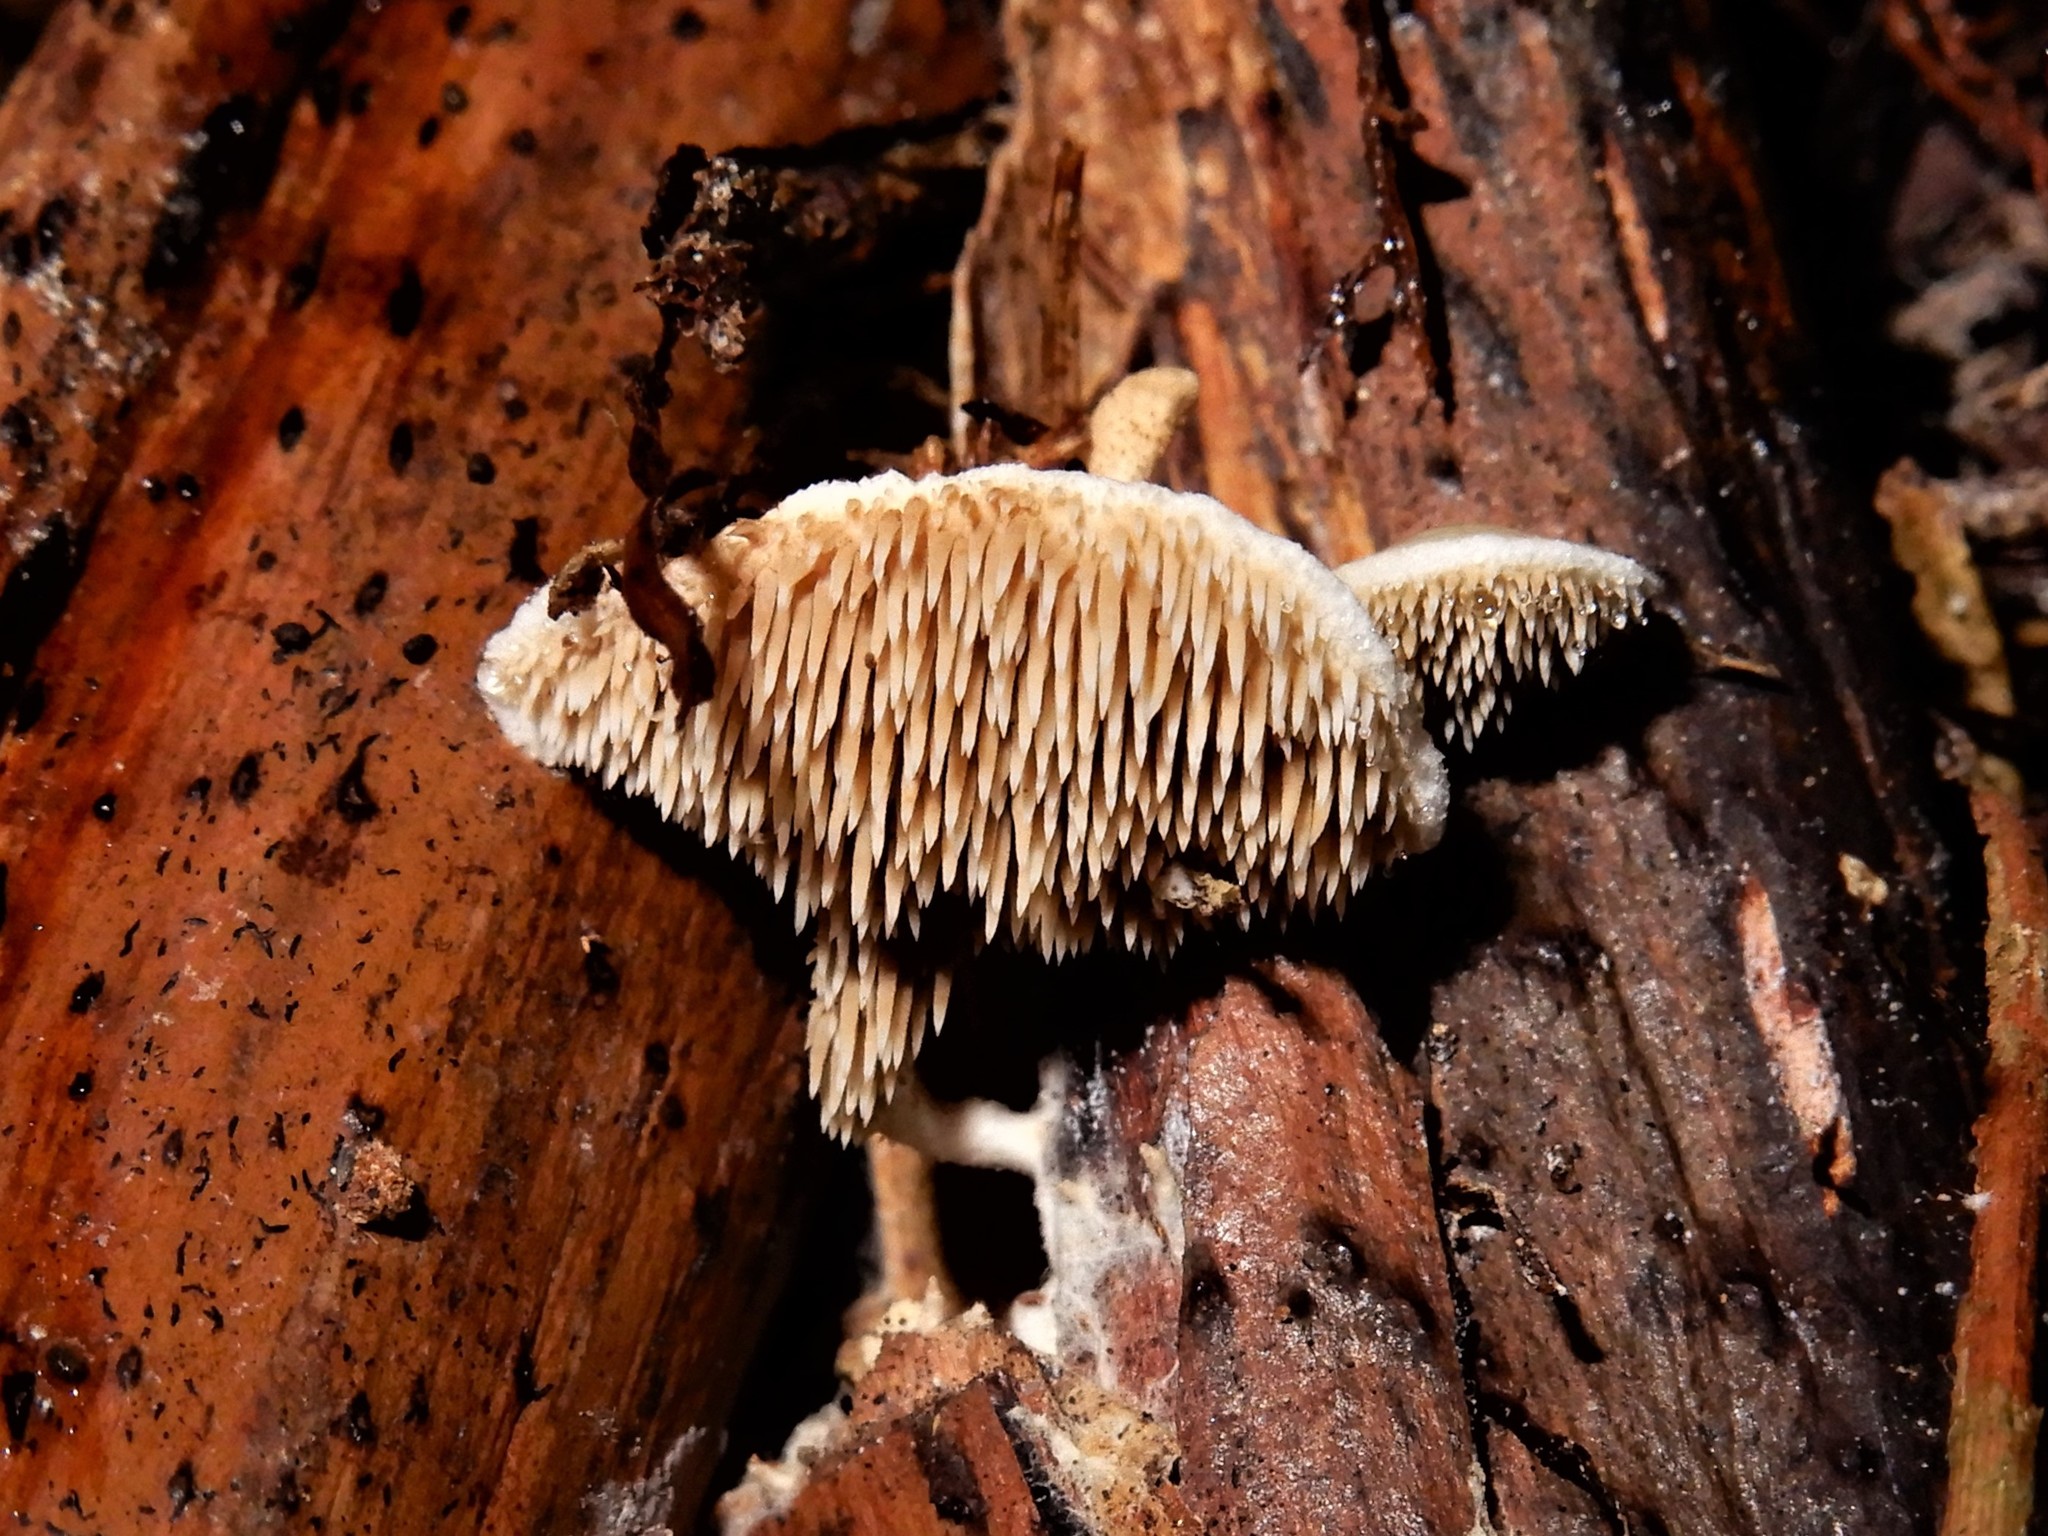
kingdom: Fungi
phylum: Basidiomycota
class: Agaricomycetes
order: Gomphales
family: Clavariadelphaceae
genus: Beenakia
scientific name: Beenakia dacostae
